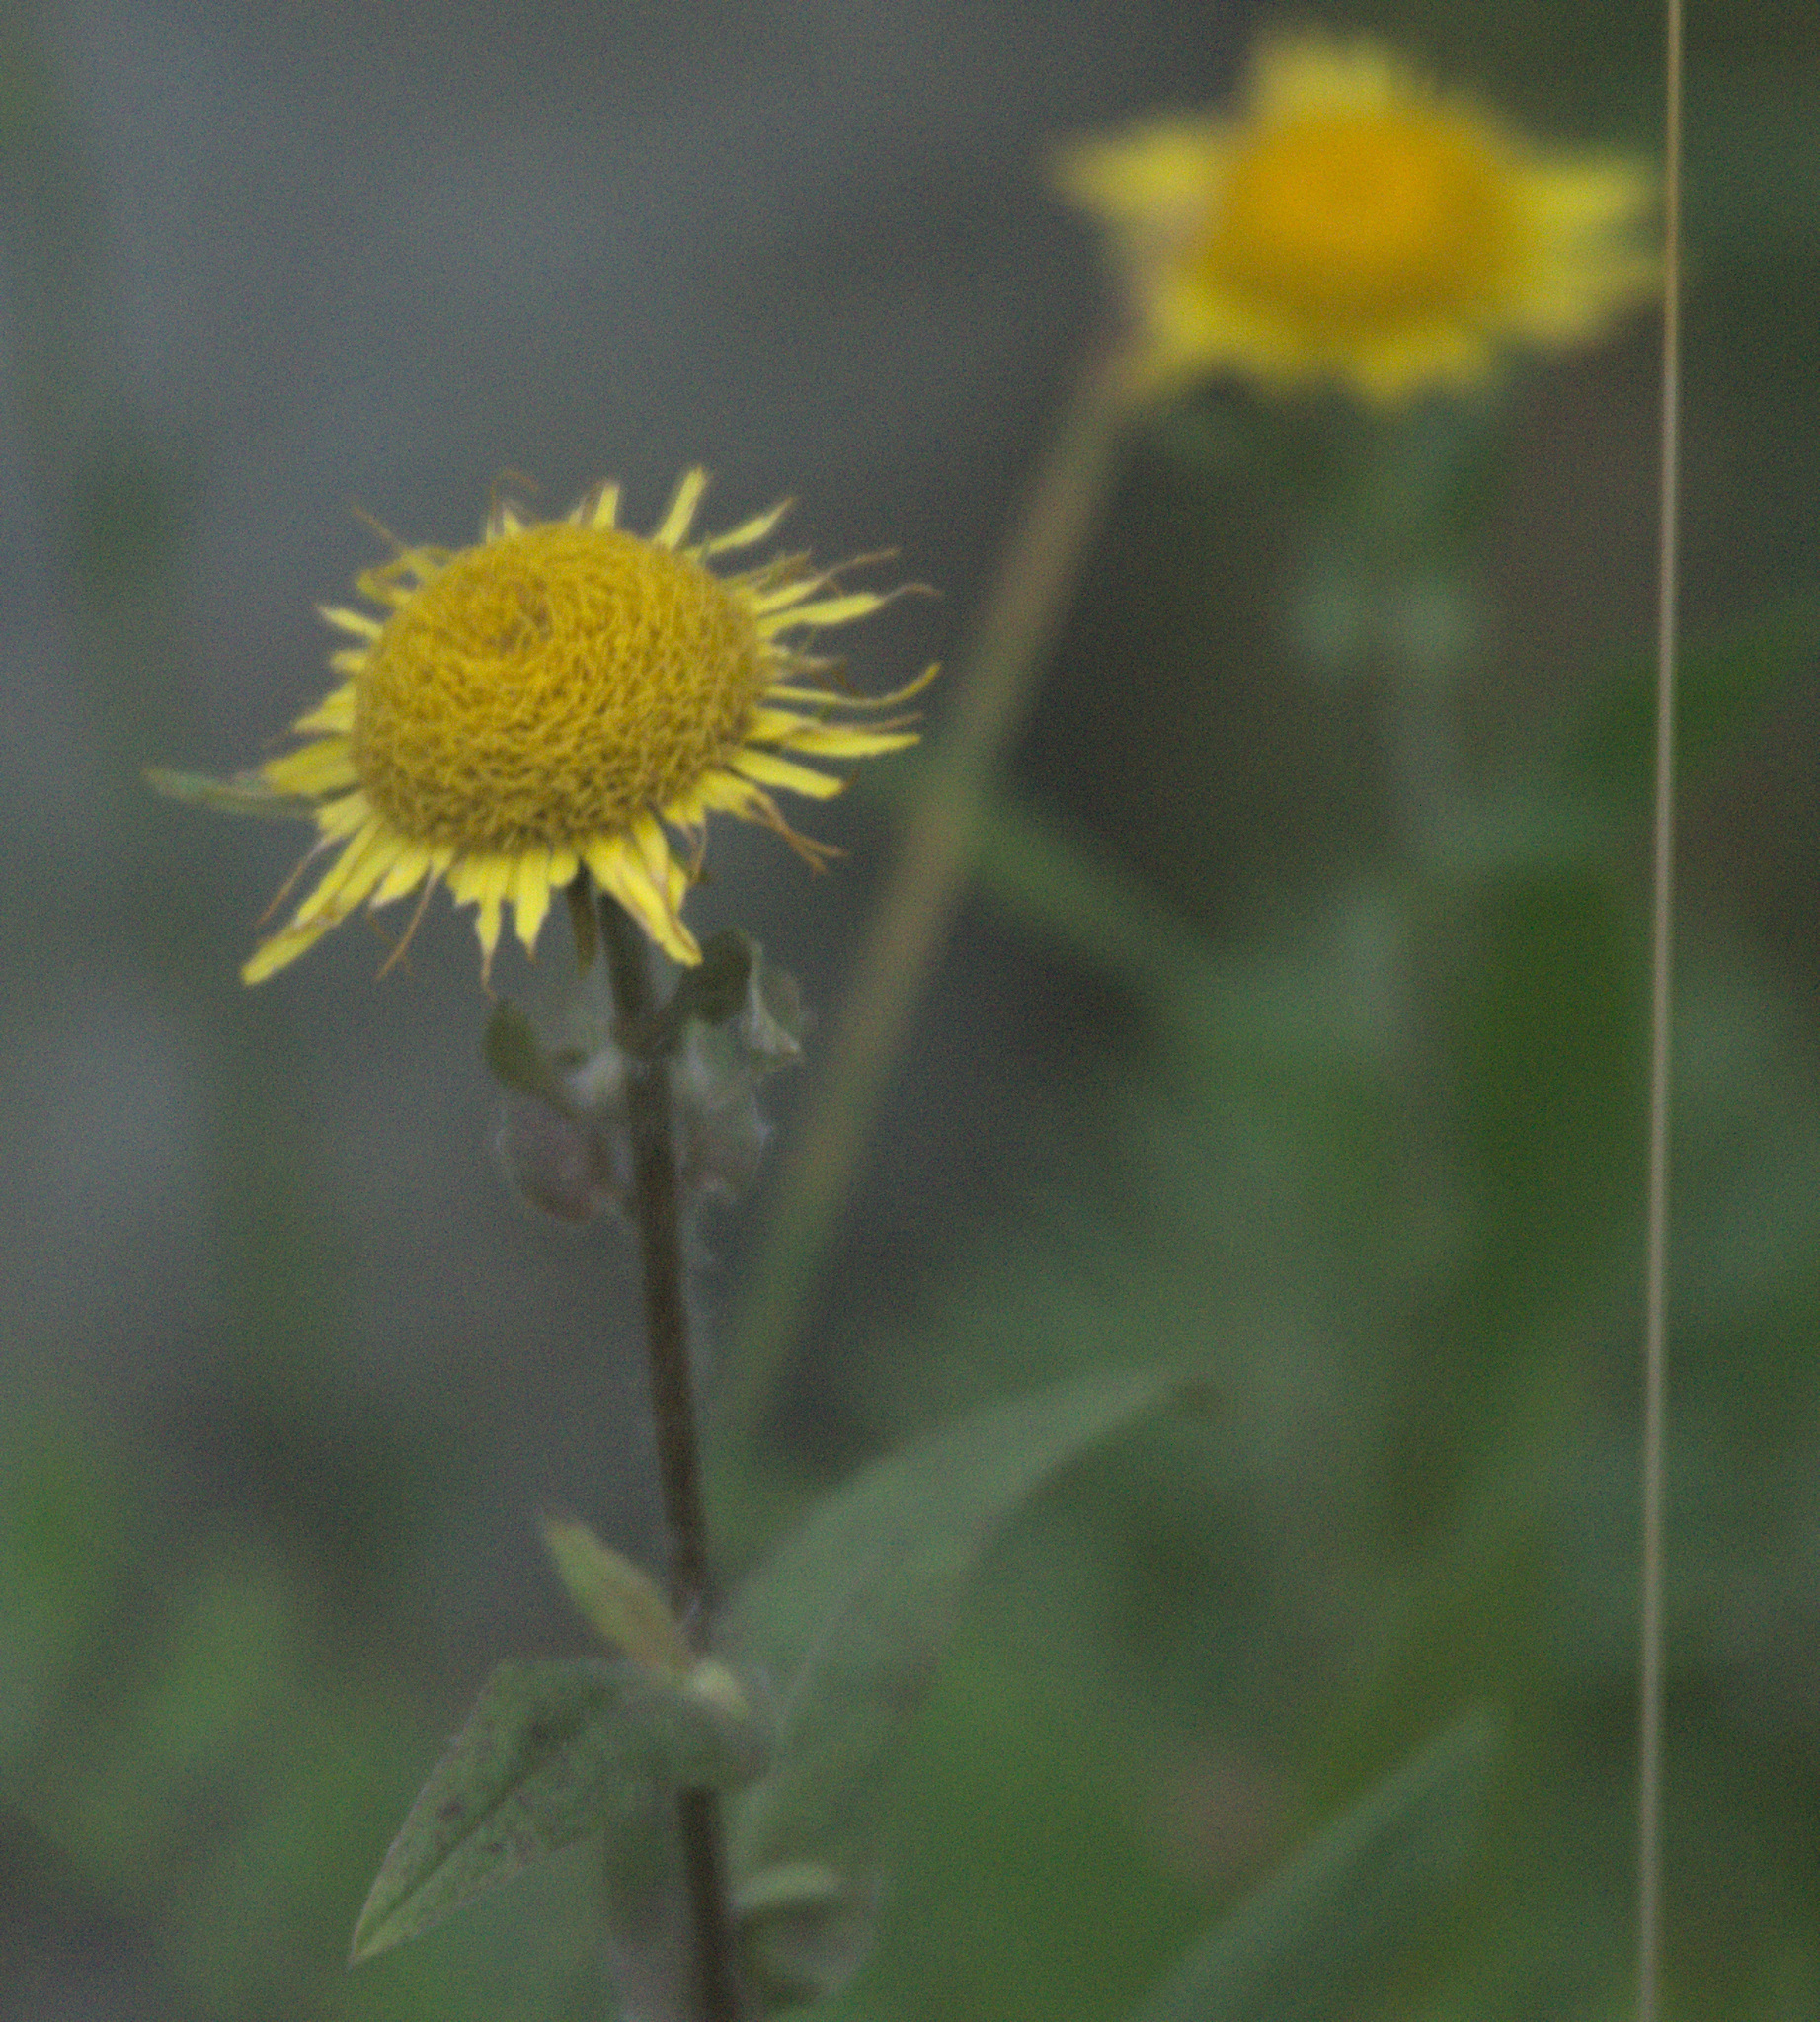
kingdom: Plantae
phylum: Tracheophyta
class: Magnoliopsida
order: Asterales
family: Asteraceae
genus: Pentanema
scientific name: Pentanema britannicum
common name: British elecampane
